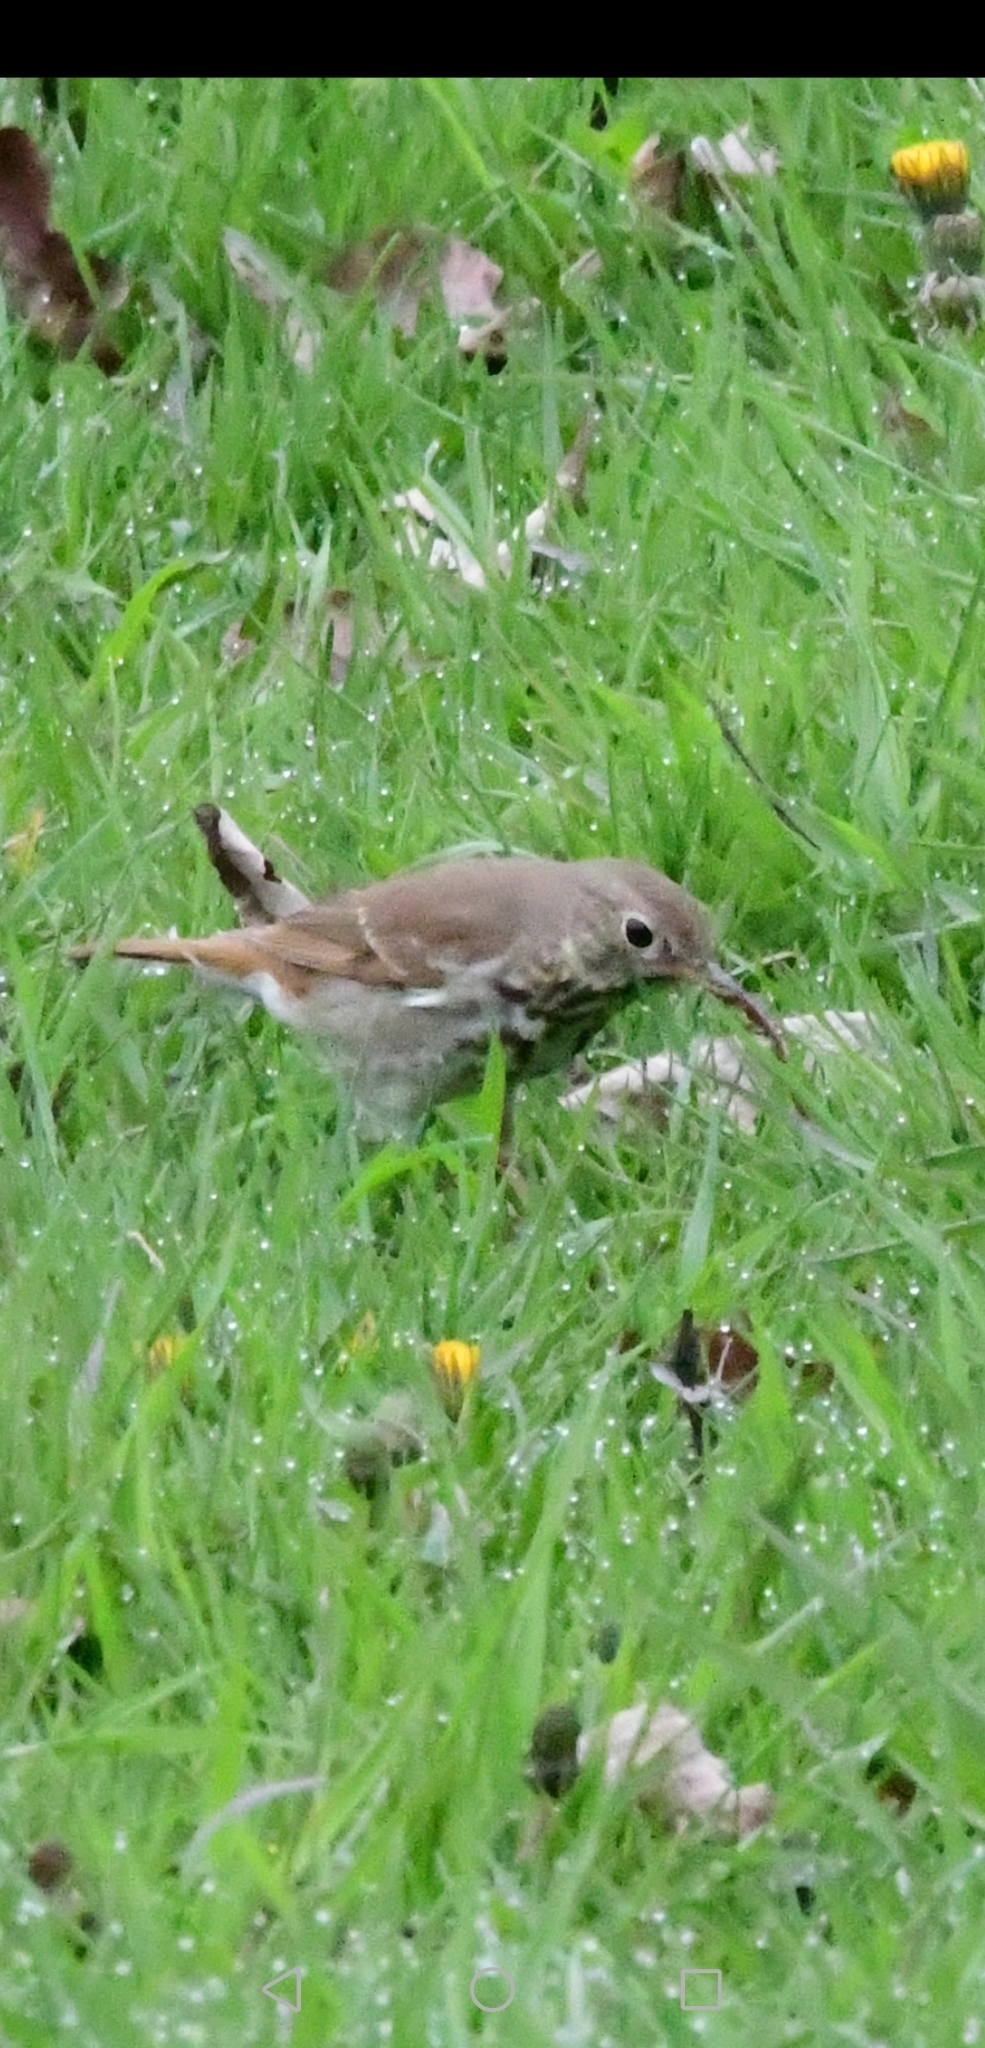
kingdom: Animalia
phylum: Chordata
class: Aves
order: Passeriformes
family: Turdidae
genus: Catharus
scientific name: Catharus guttatus
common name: Hermit thrush
